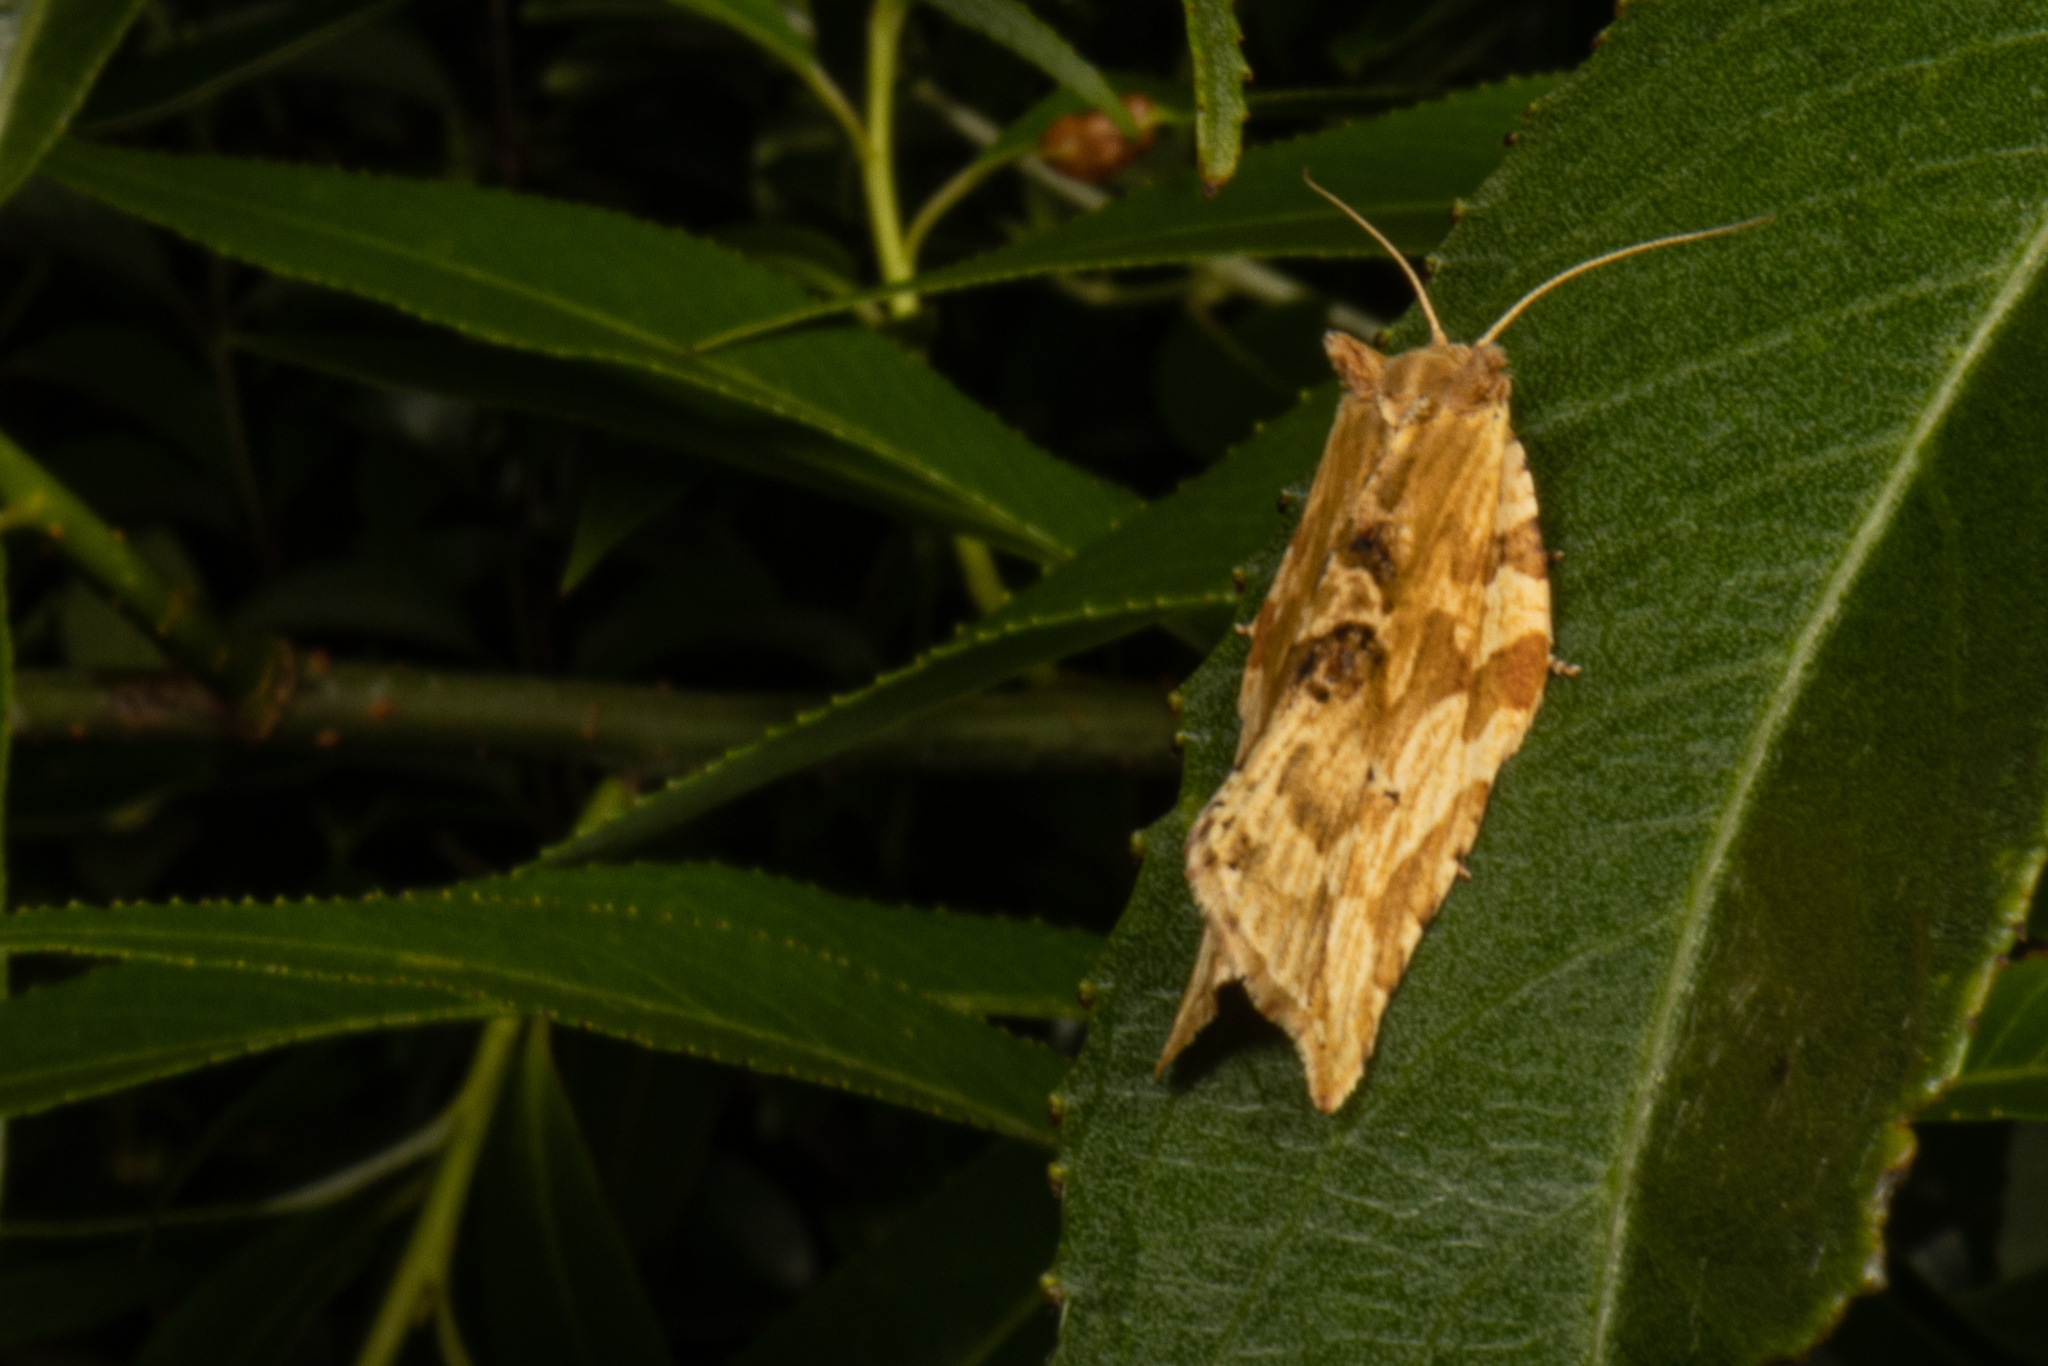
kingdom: Animalia
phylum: Arthropoda
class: Insecta
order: Lepidoptera
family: Tortricidae
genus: Epalxiphora
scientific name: Epalxiphora axenana
